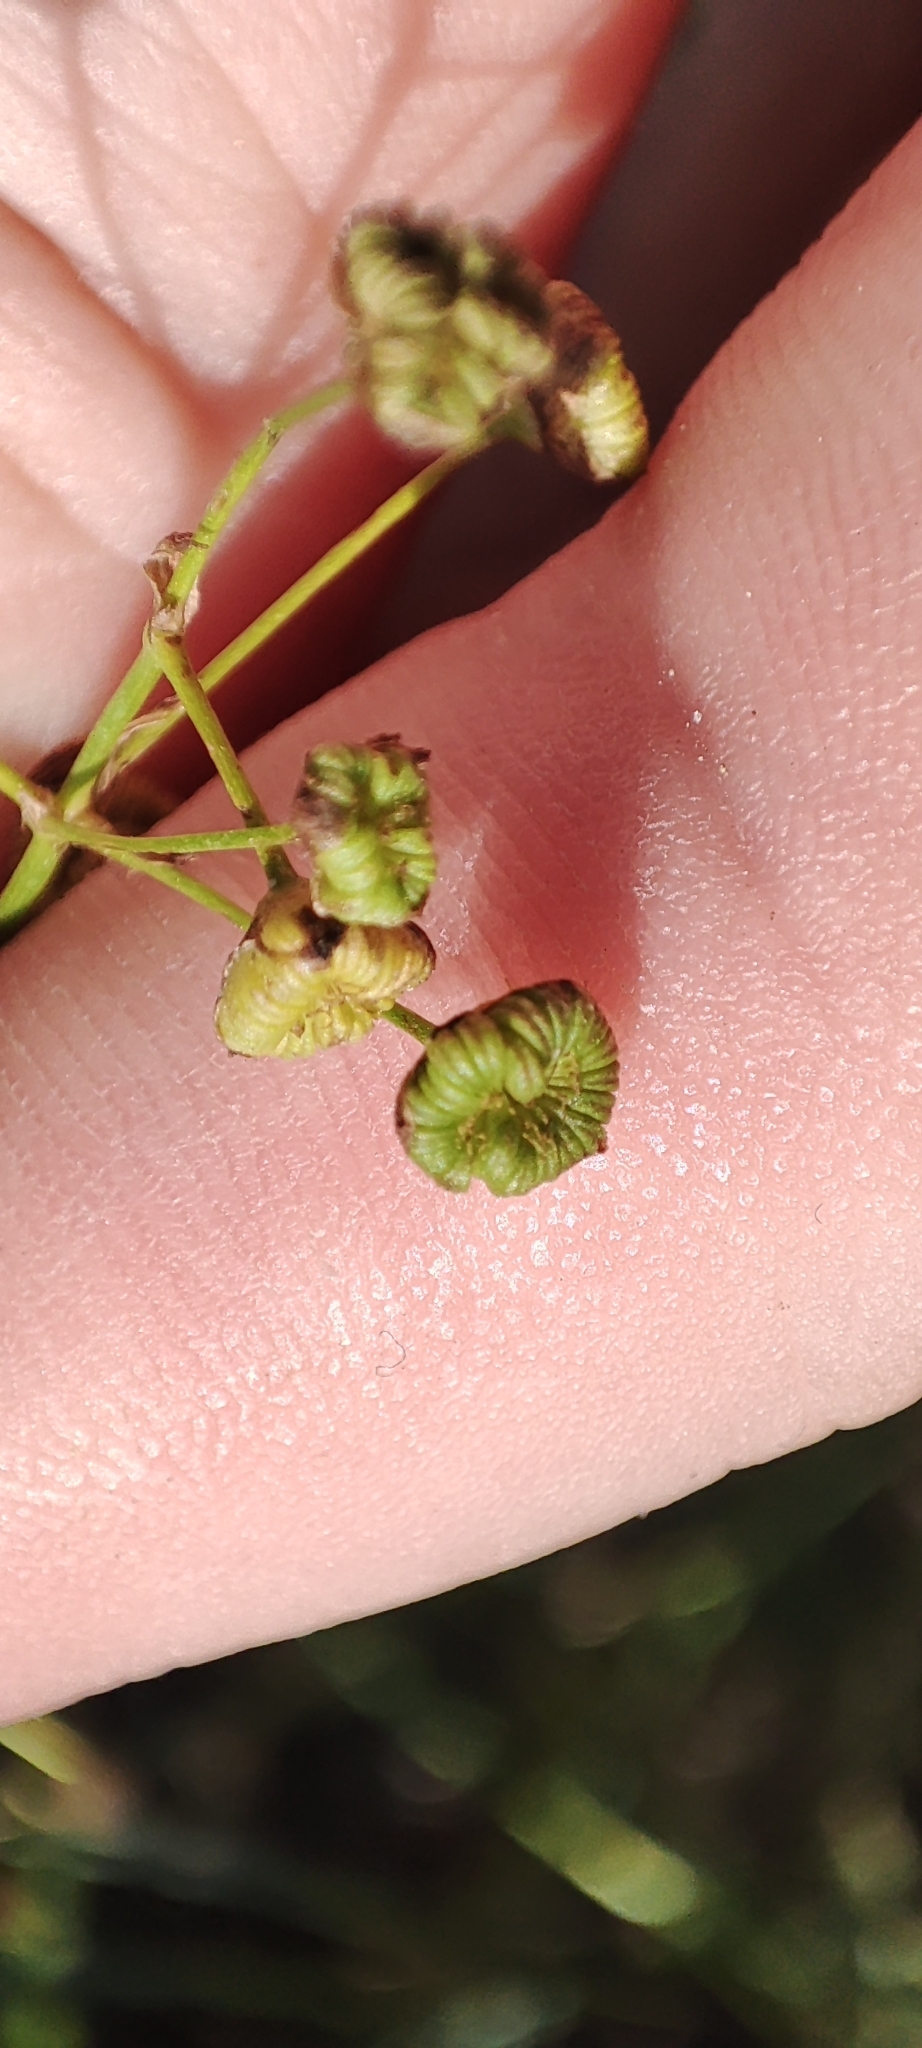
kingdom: Plantae
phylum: Tracheophyta
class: Liliopsida
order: Alismatales
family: Alismataceae
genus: Alisma
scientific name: Alisma plantago-aquatica
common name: Water-plantain
